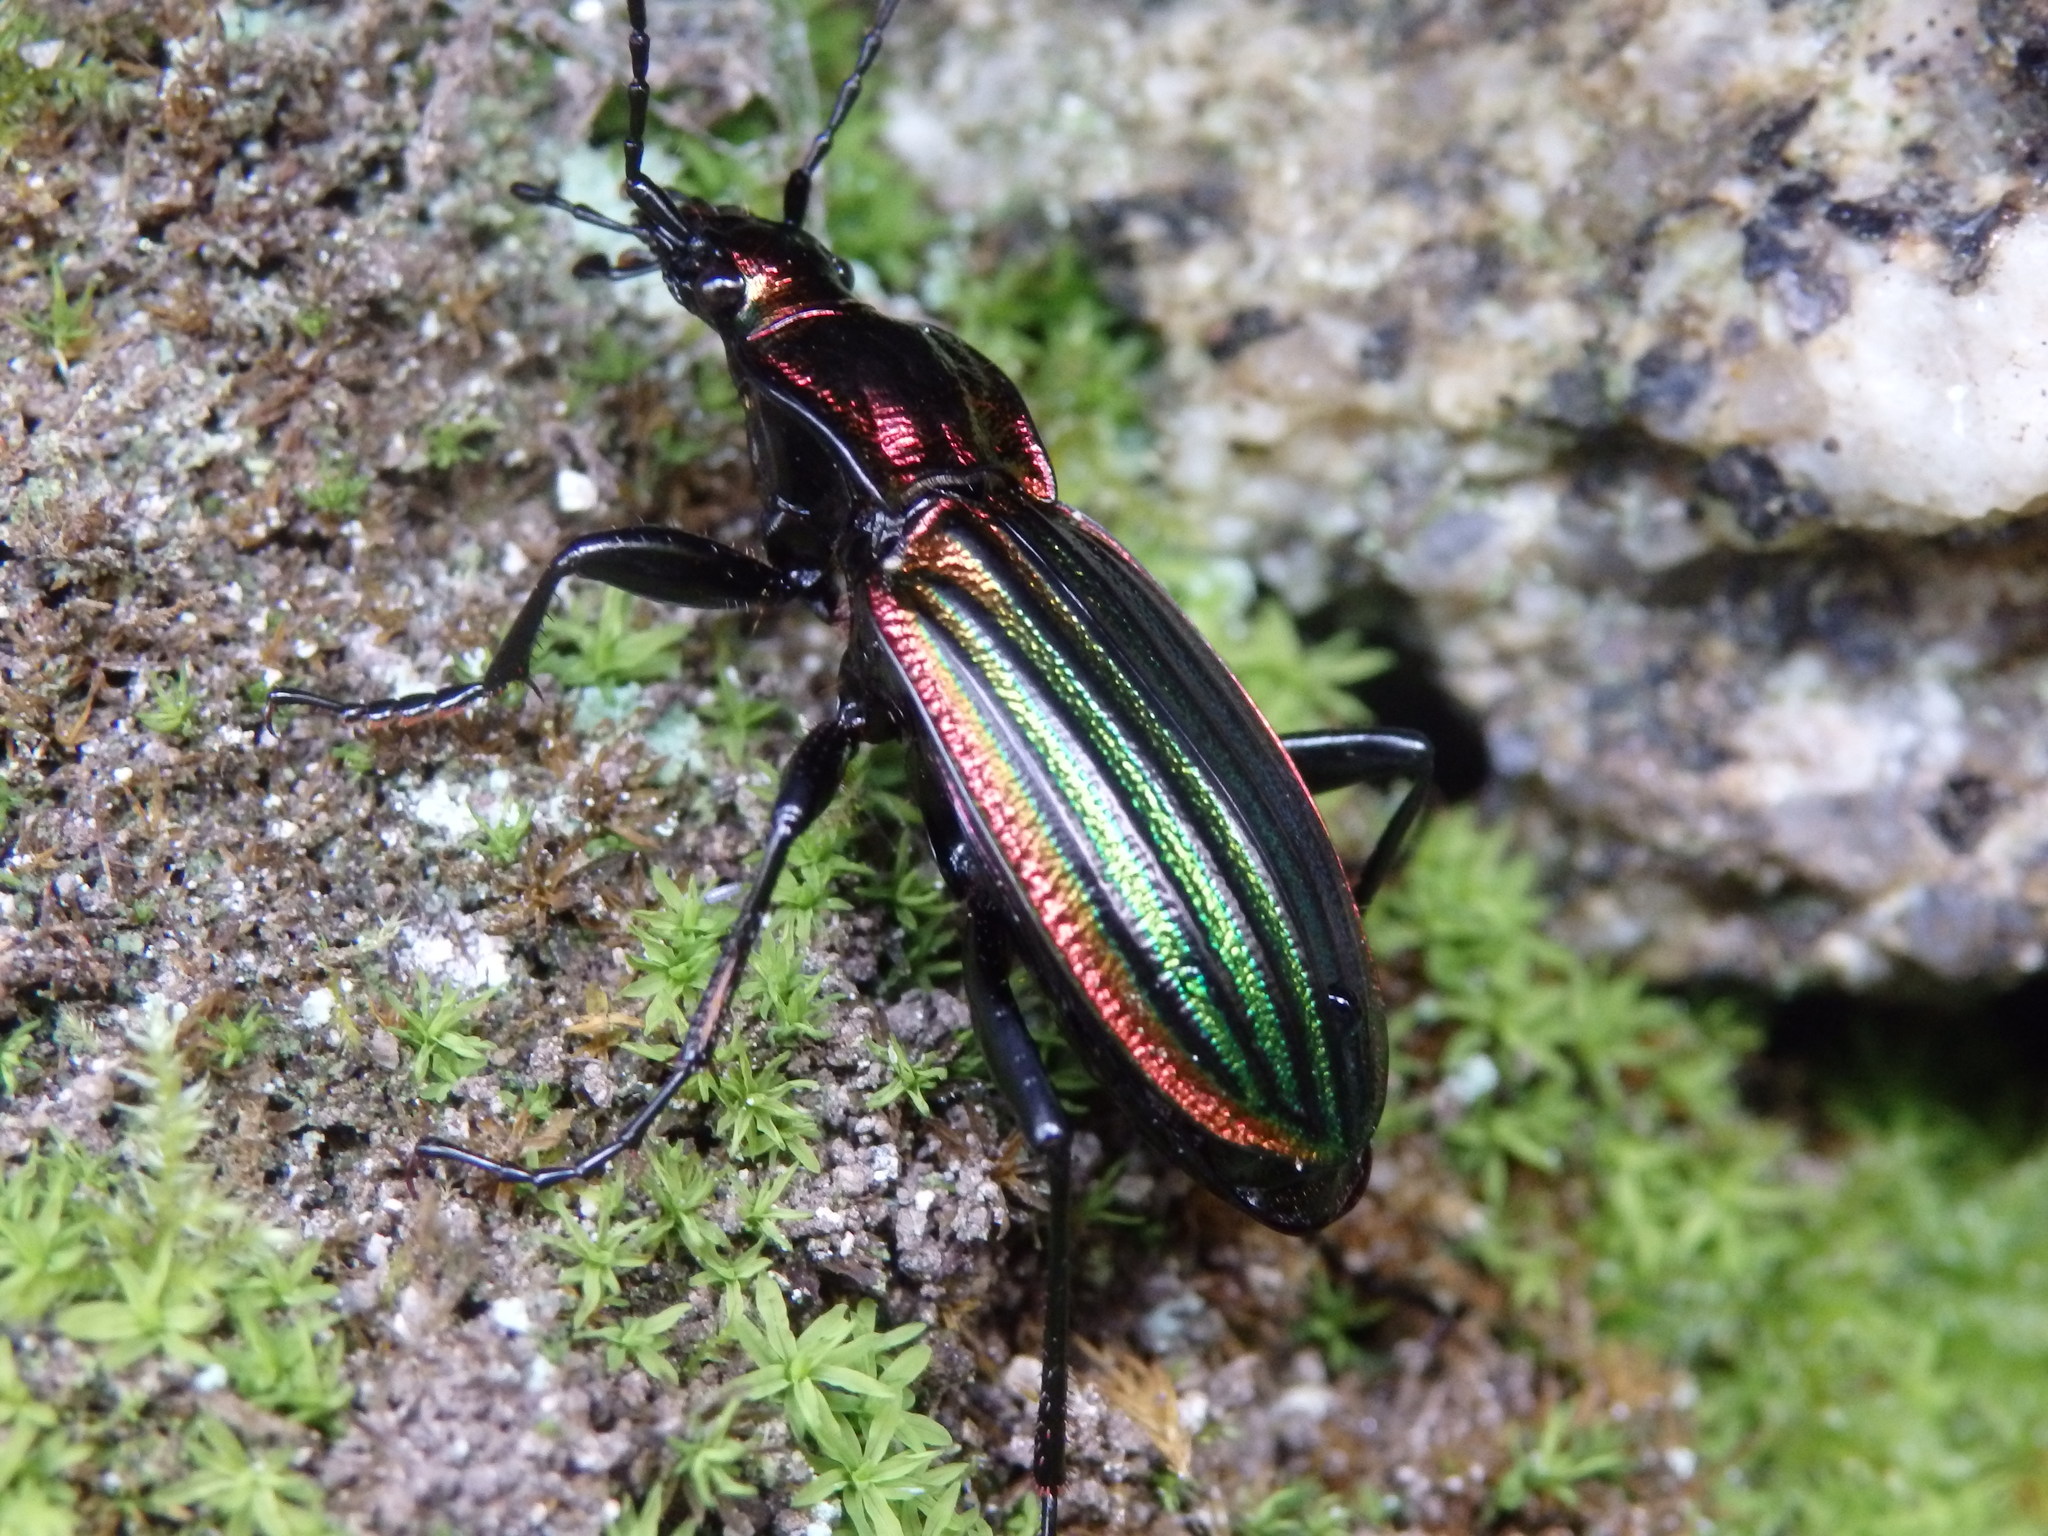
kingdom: Animalia
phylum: Arthropoda
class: Insecta
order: Coleoptera
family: Carabidae
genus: Carabus
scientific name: Carabus strasseri
